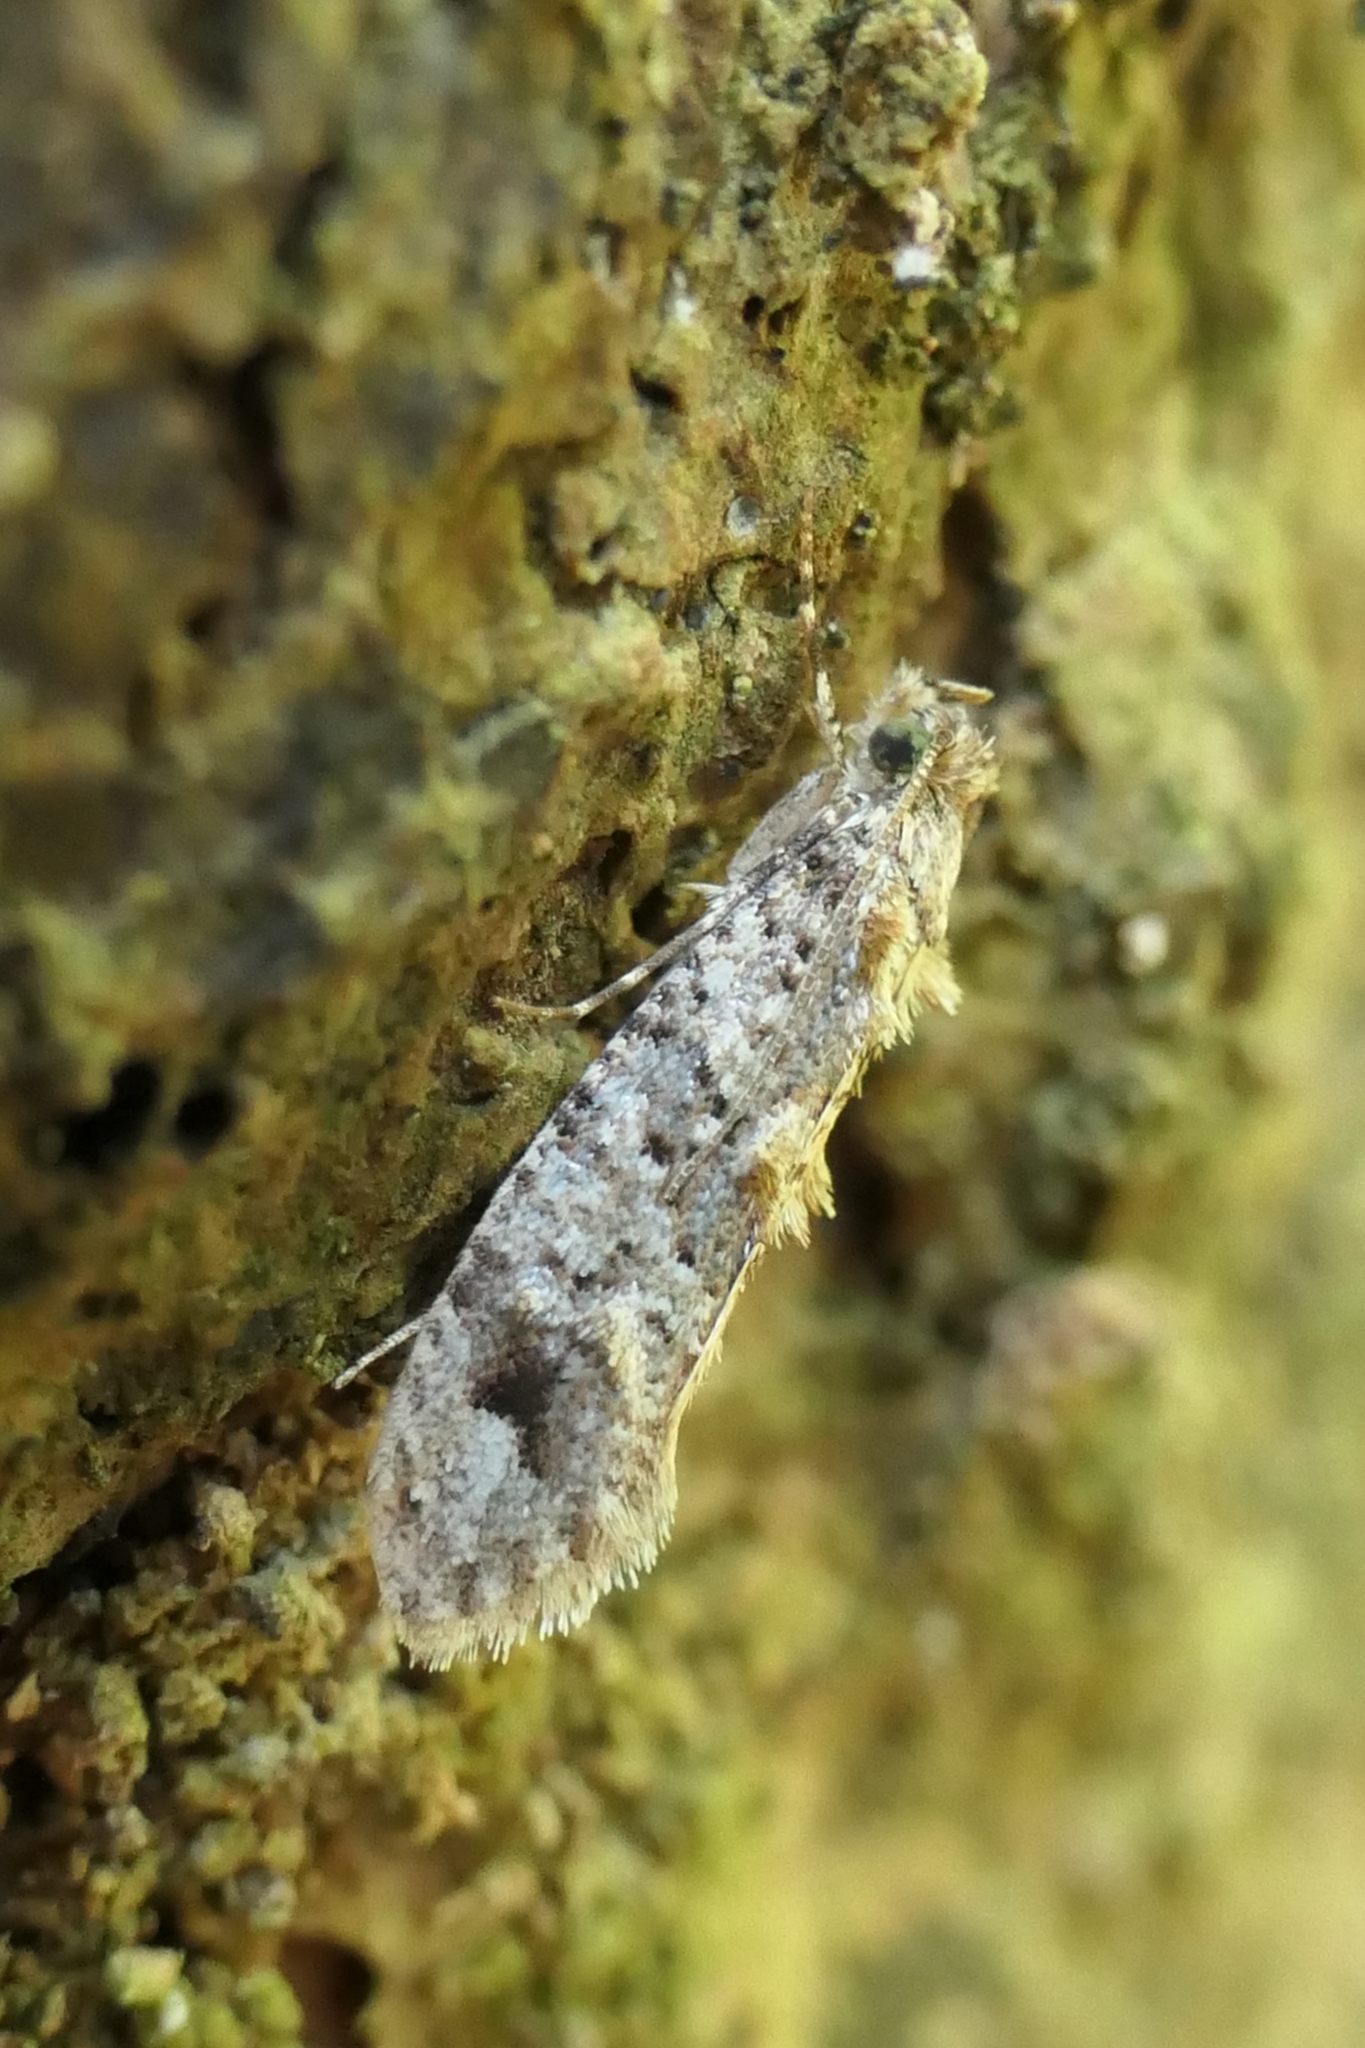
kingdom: Animalia
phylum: Arthropoda
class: Insecta
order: Lepidoptera
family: Tineidae
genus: Lysiphragma
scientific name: Lysiphragma epixyla
